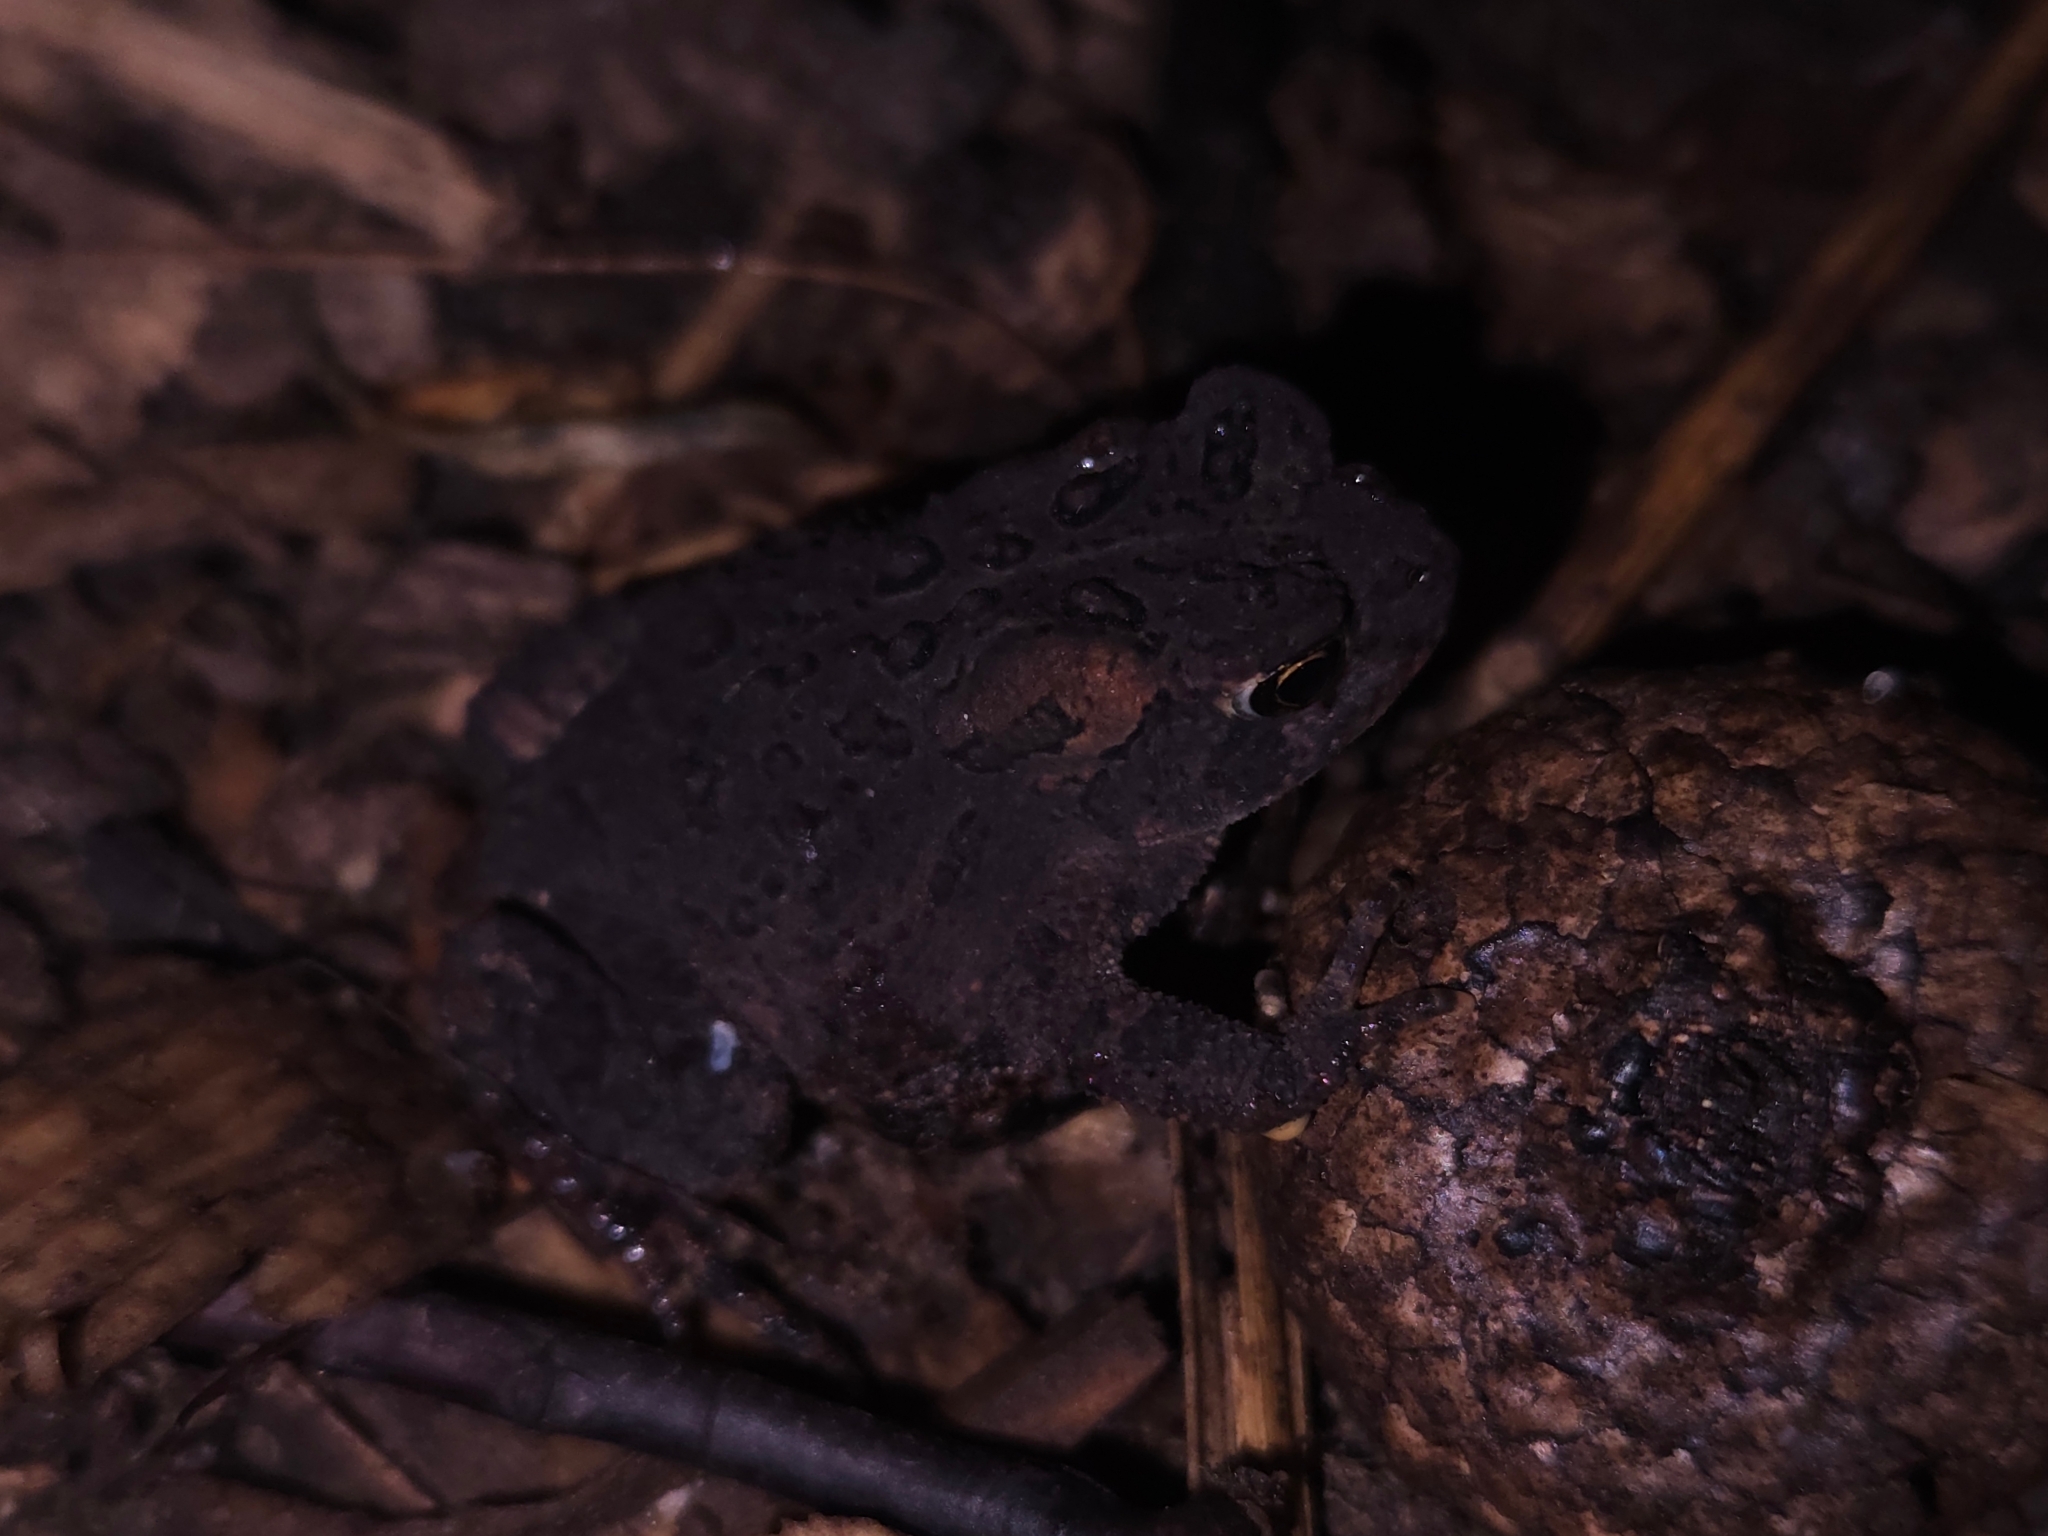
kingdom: Animalia
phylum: Chordata
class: Amphibia
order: Anura
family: Bufonidae
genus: Anaxyrus
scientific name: Anaxyrus americanus
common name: American toad
